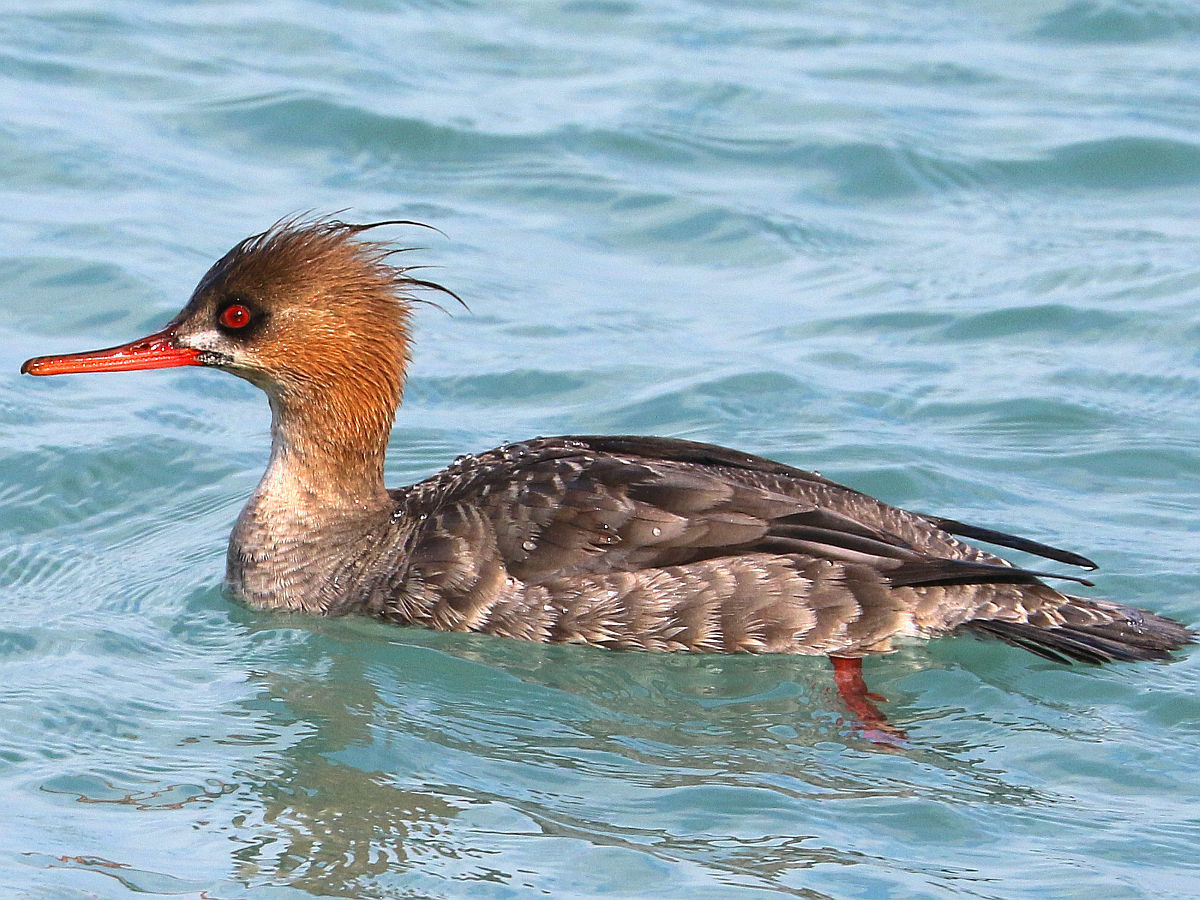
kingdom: Animalia
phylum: Chordata
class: Aves
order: Anseriformes
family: Anatidae
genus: Mergus
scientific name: Mergus serrator
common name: Red-breasted merganser
